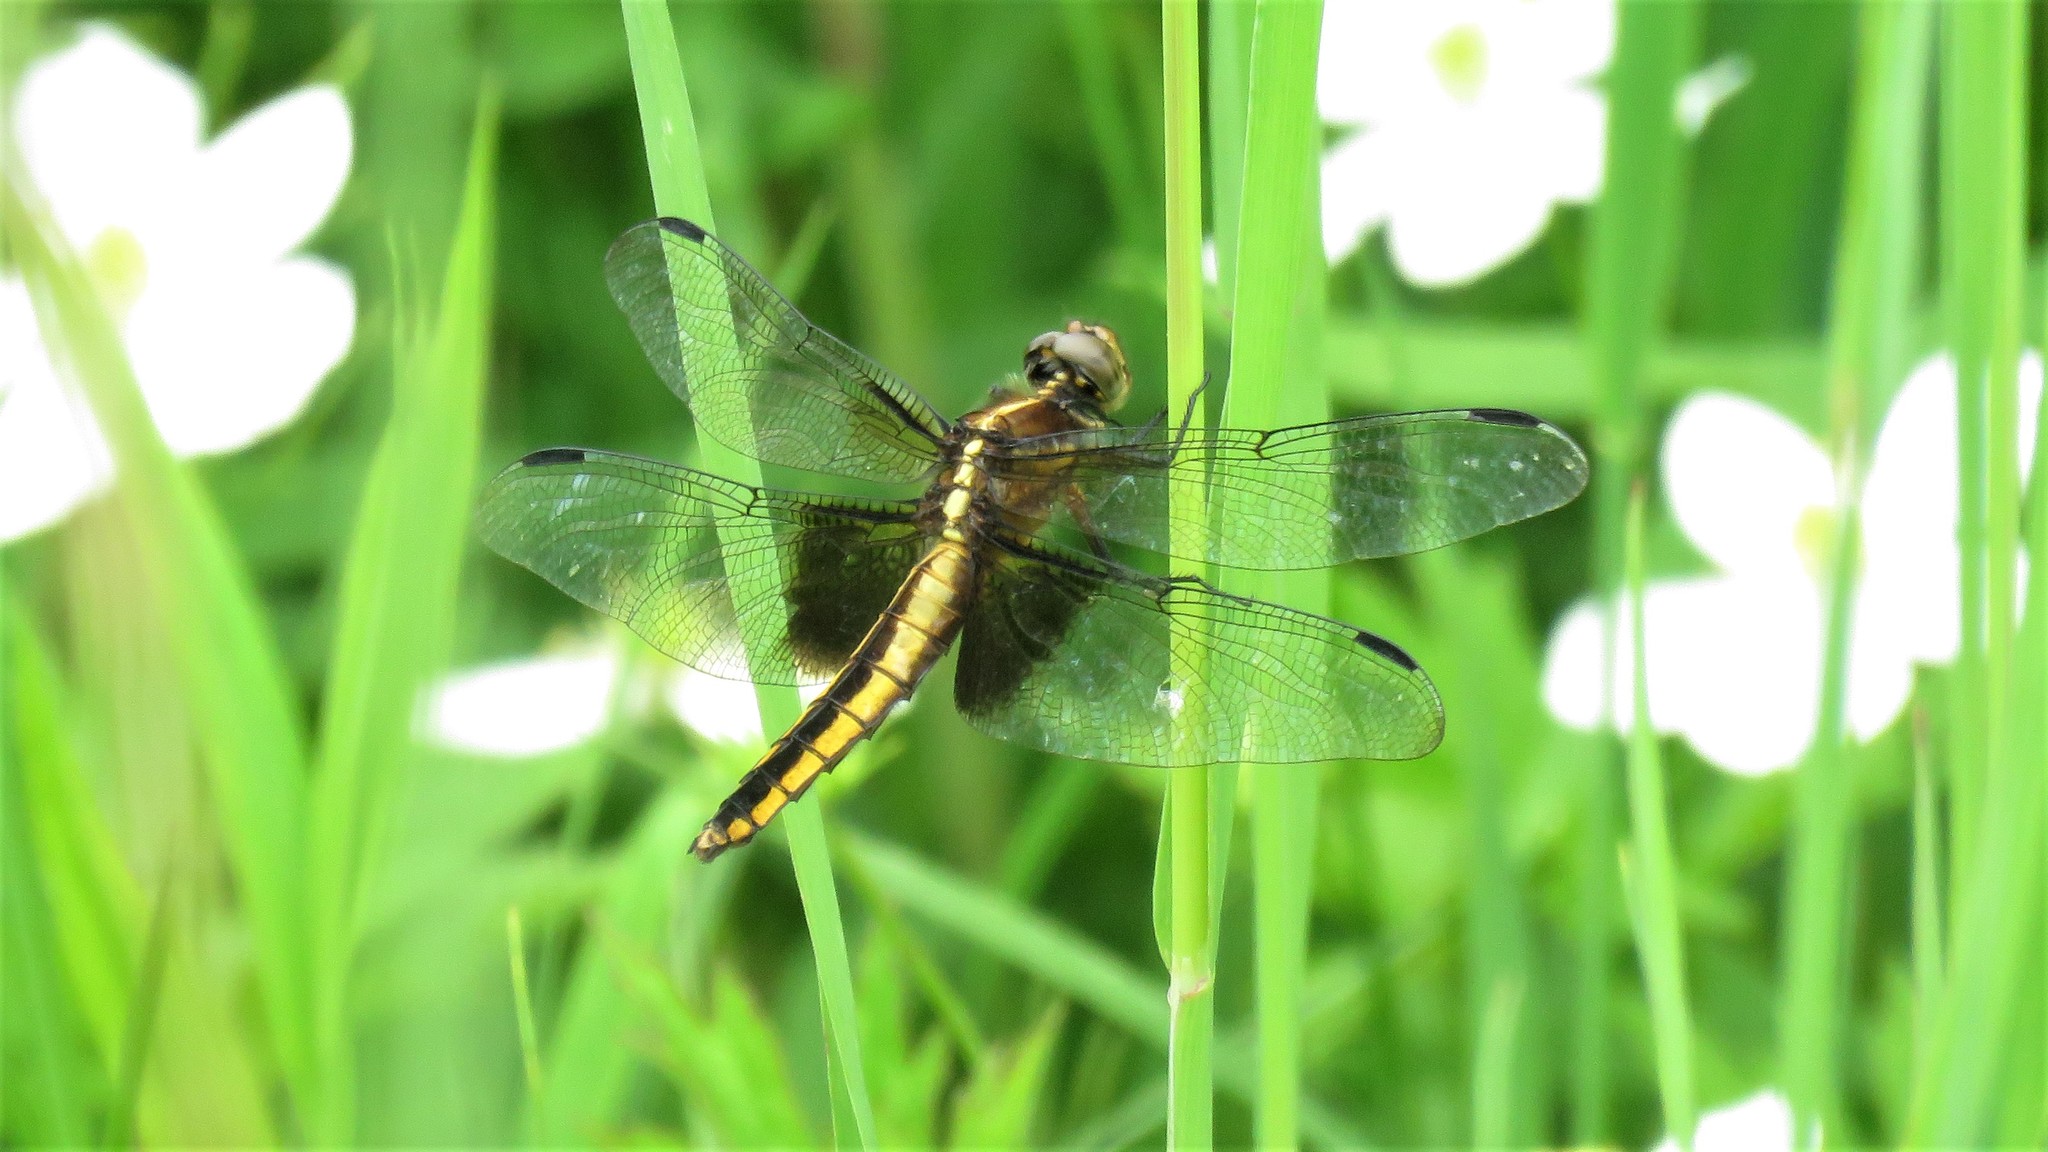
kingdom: Animalia
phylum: Arthropoda
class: Insecta
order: Odonata
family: Libellulidae
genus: Libellula
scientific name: Libellula luctuosa
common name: Widow skimmer
